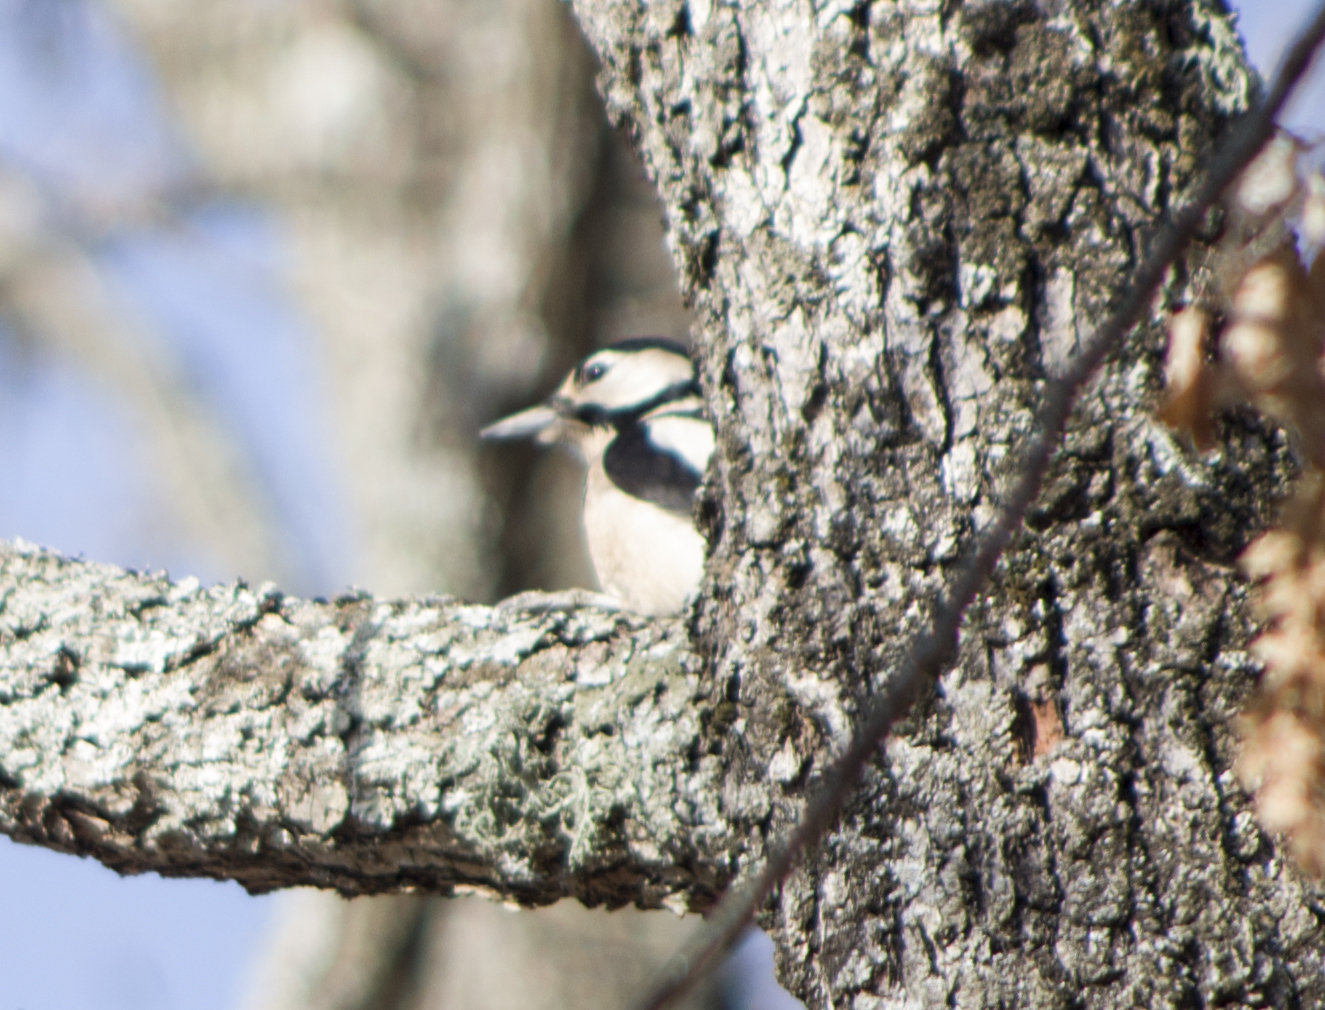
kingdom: Animalia
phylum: Chordata
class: Aves
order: Piciformes
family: Picidae
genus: Dendrocopos
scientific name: Dendrocopos major
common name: Great spotted woodpecker
